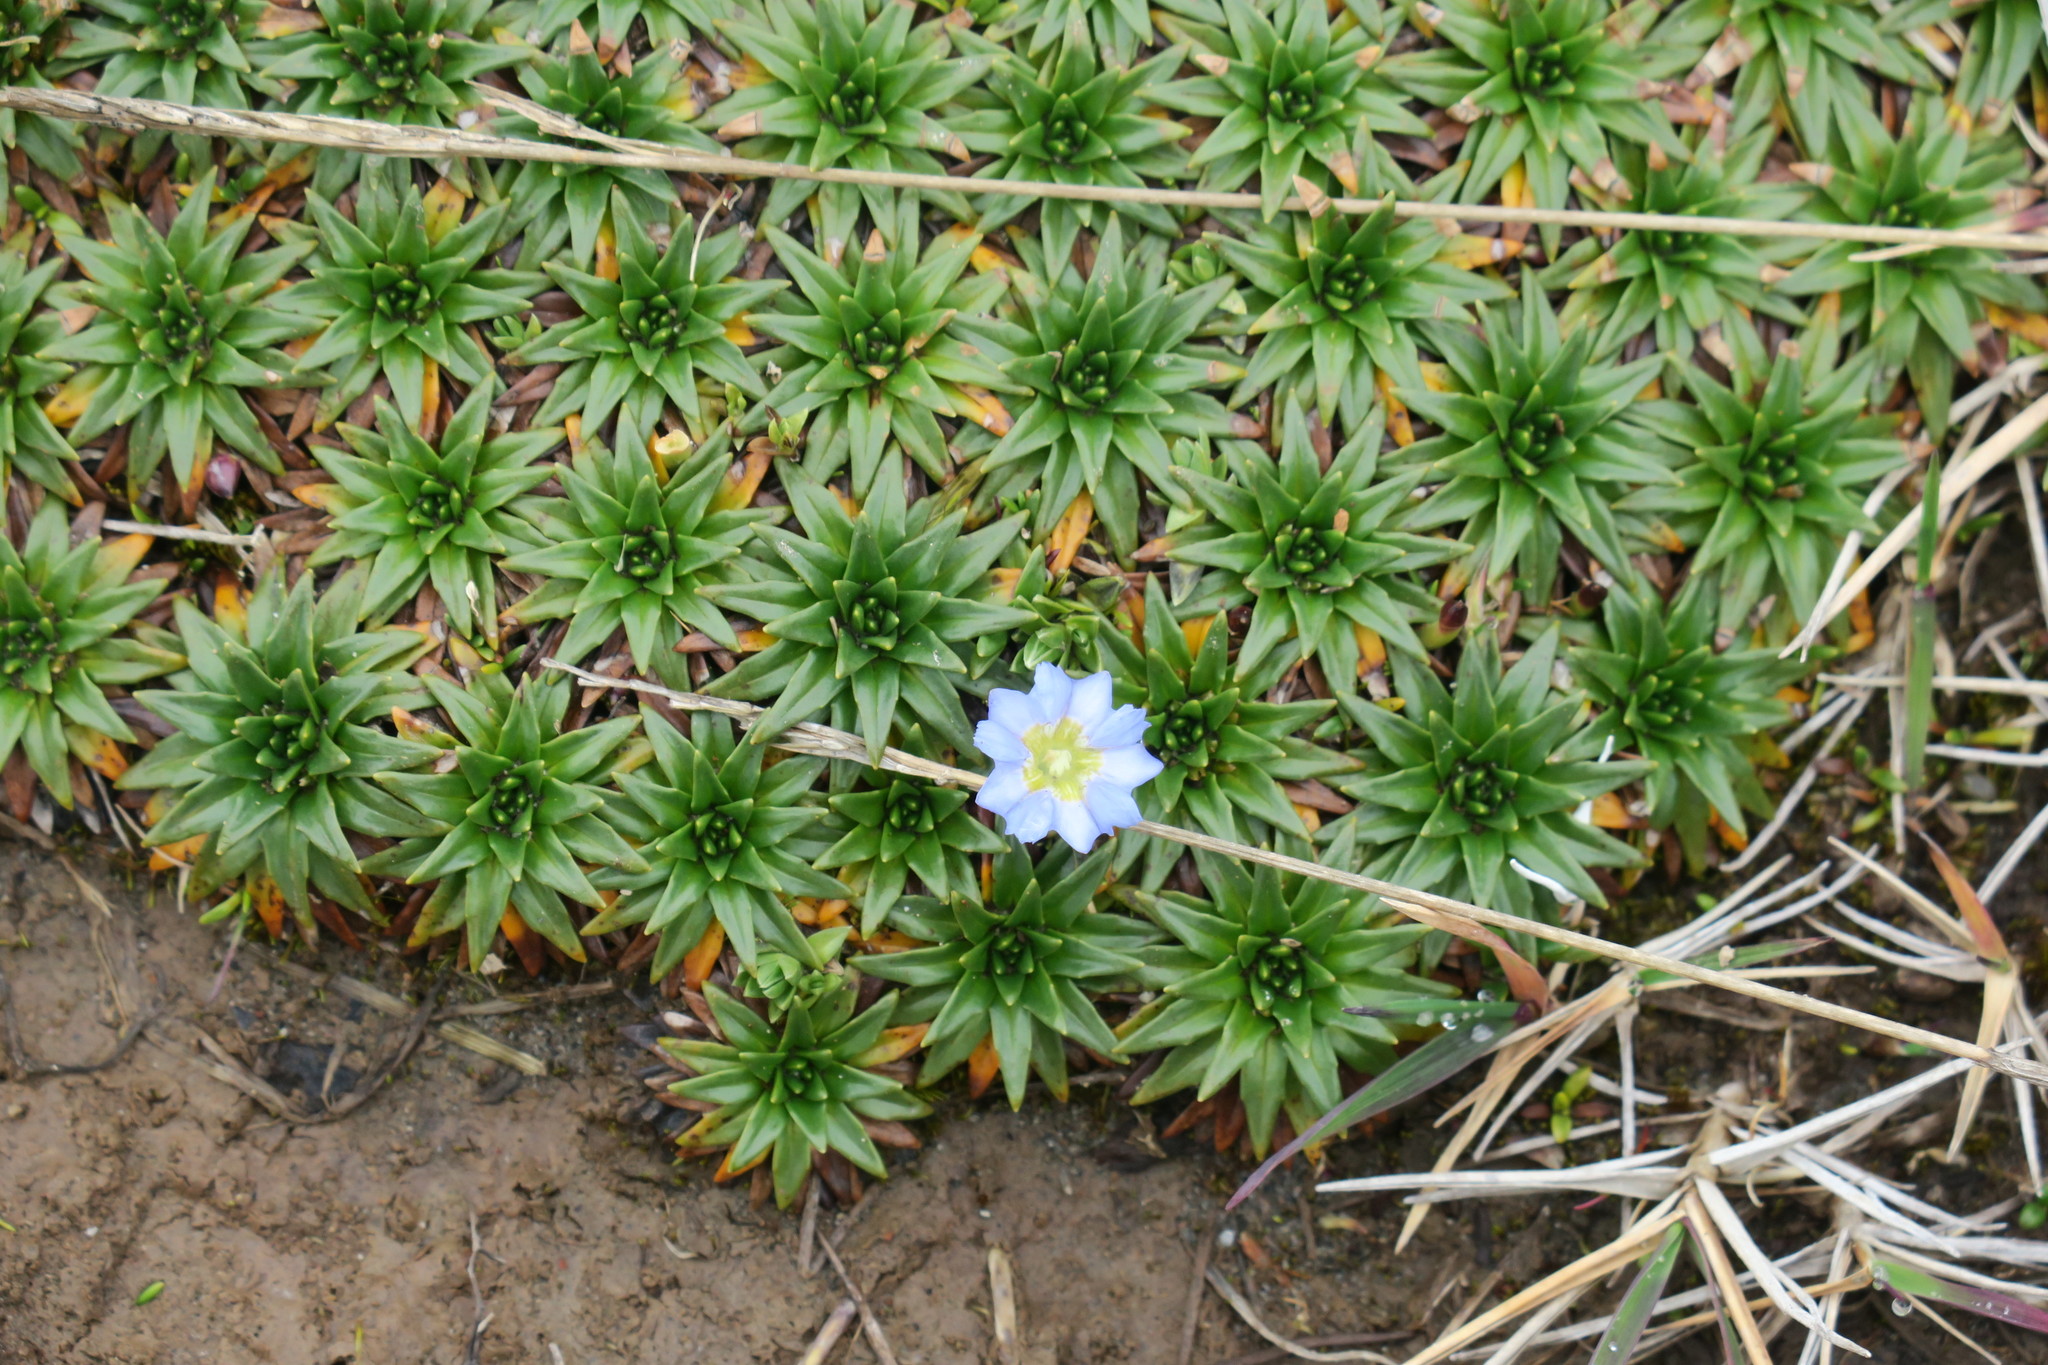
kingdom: Plantae
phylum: Tracheophyta
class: Magnoliopsida
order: Lamiales
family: Plantaginaceae
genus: Plantago
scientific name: Plantago rigida
